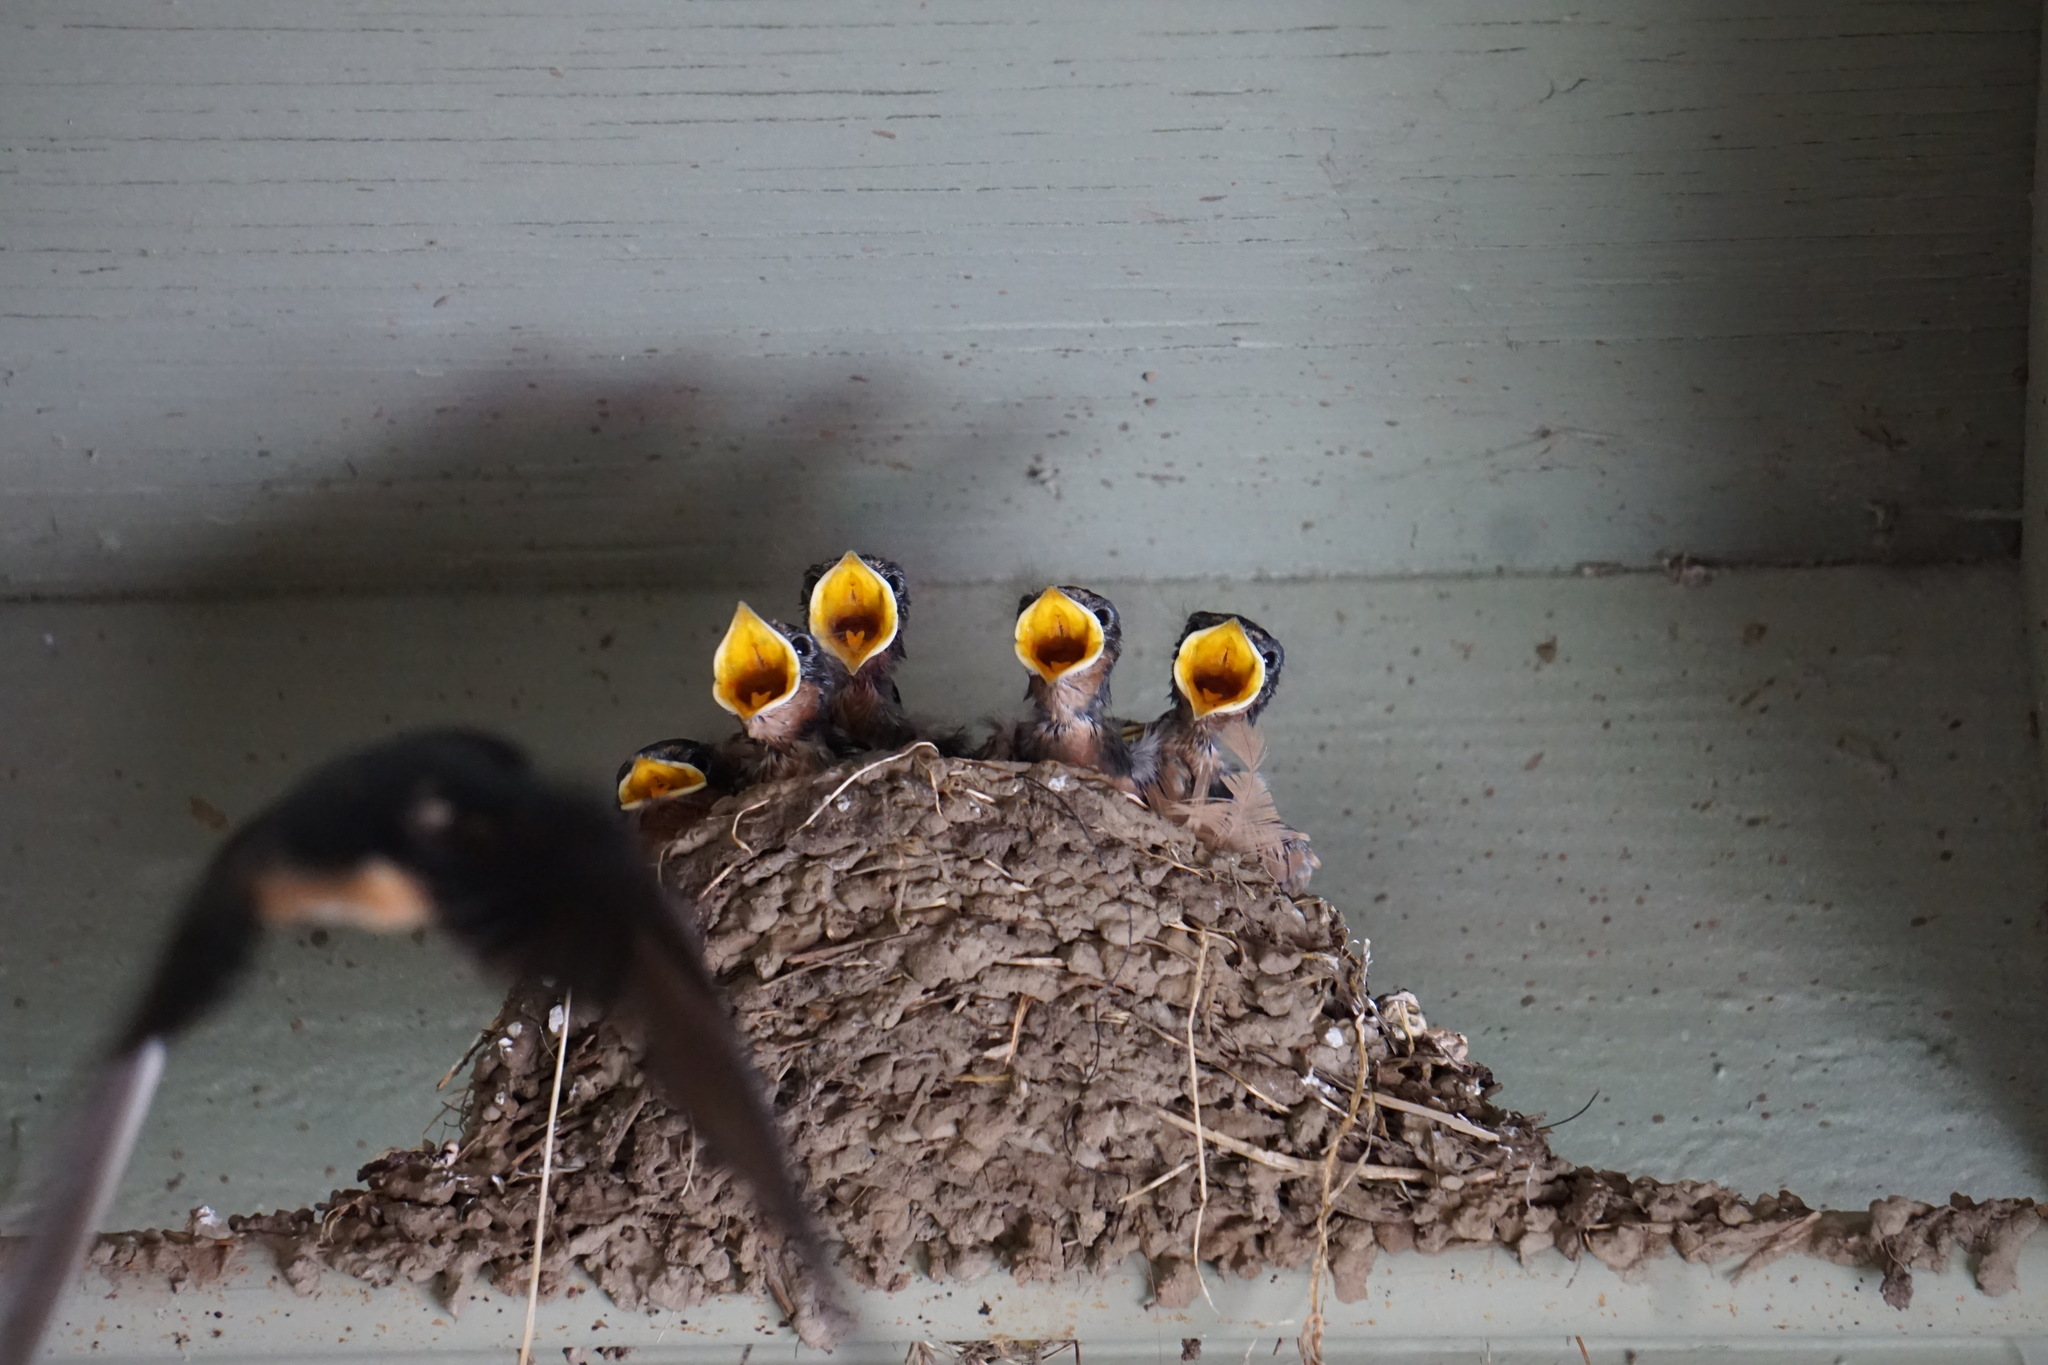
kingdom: Animalia
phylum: Chordata
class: Aves
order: Passeriformes
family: Hirundinidae
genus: Hirundo
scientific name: Hirundo rustica
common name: Barn swallow
